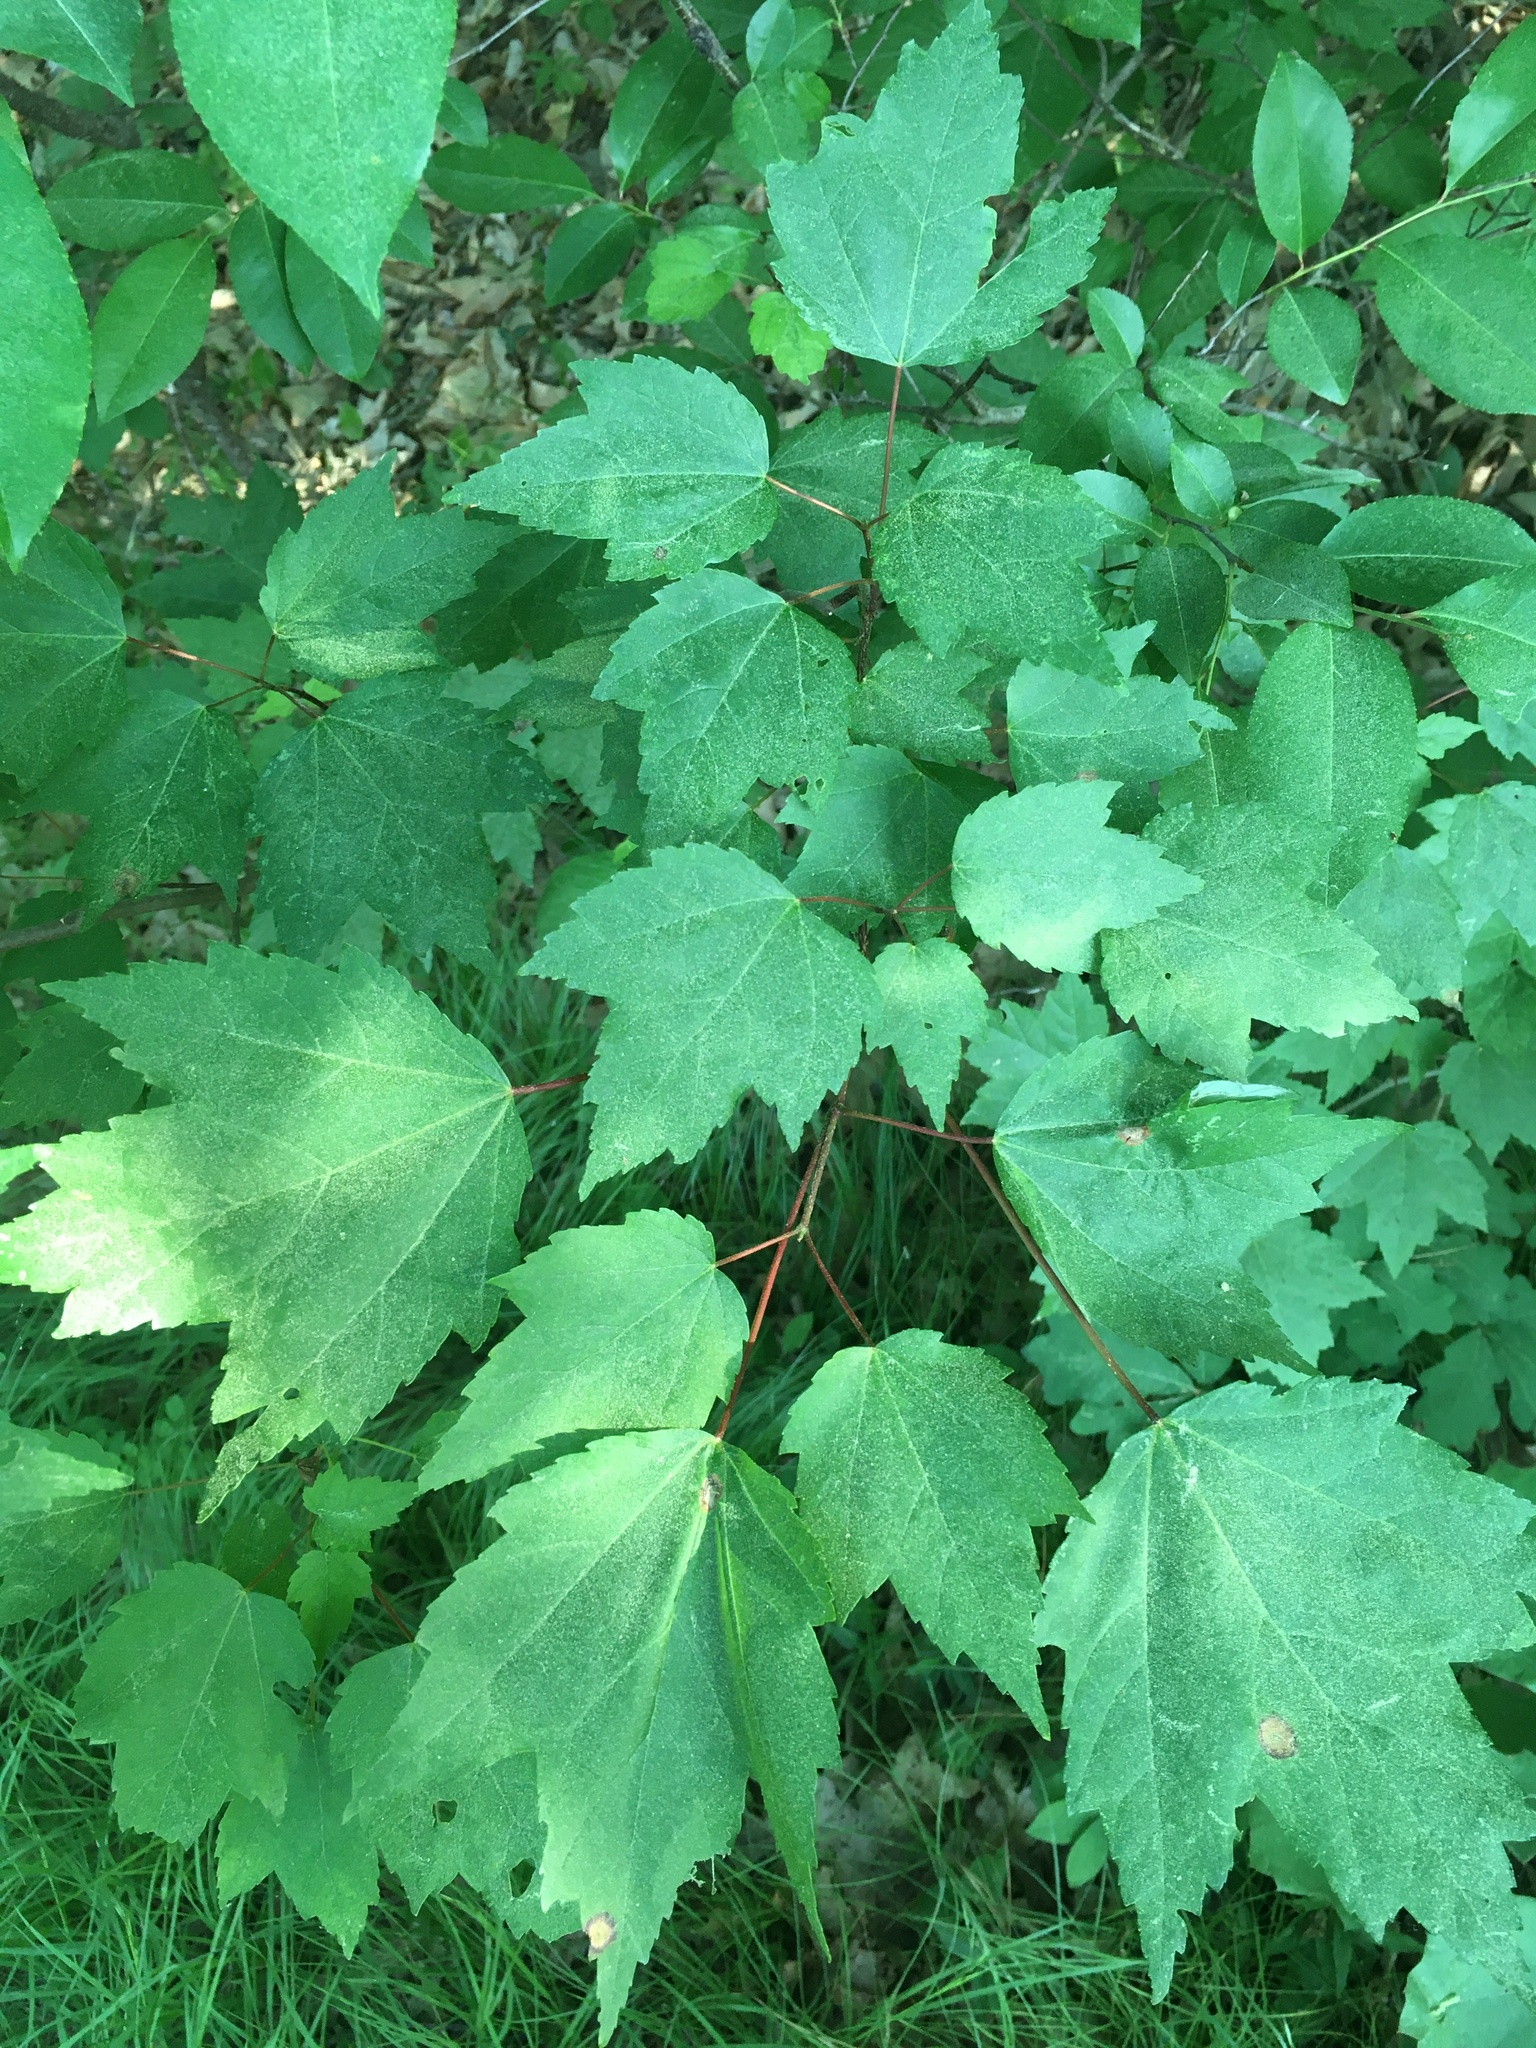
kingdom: Plantae
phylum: Tracheophyta
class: Magnoliopsida
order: Sapindales
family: Sapindaceae
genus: Acer
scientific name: Acer rubrum
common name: Red maple
